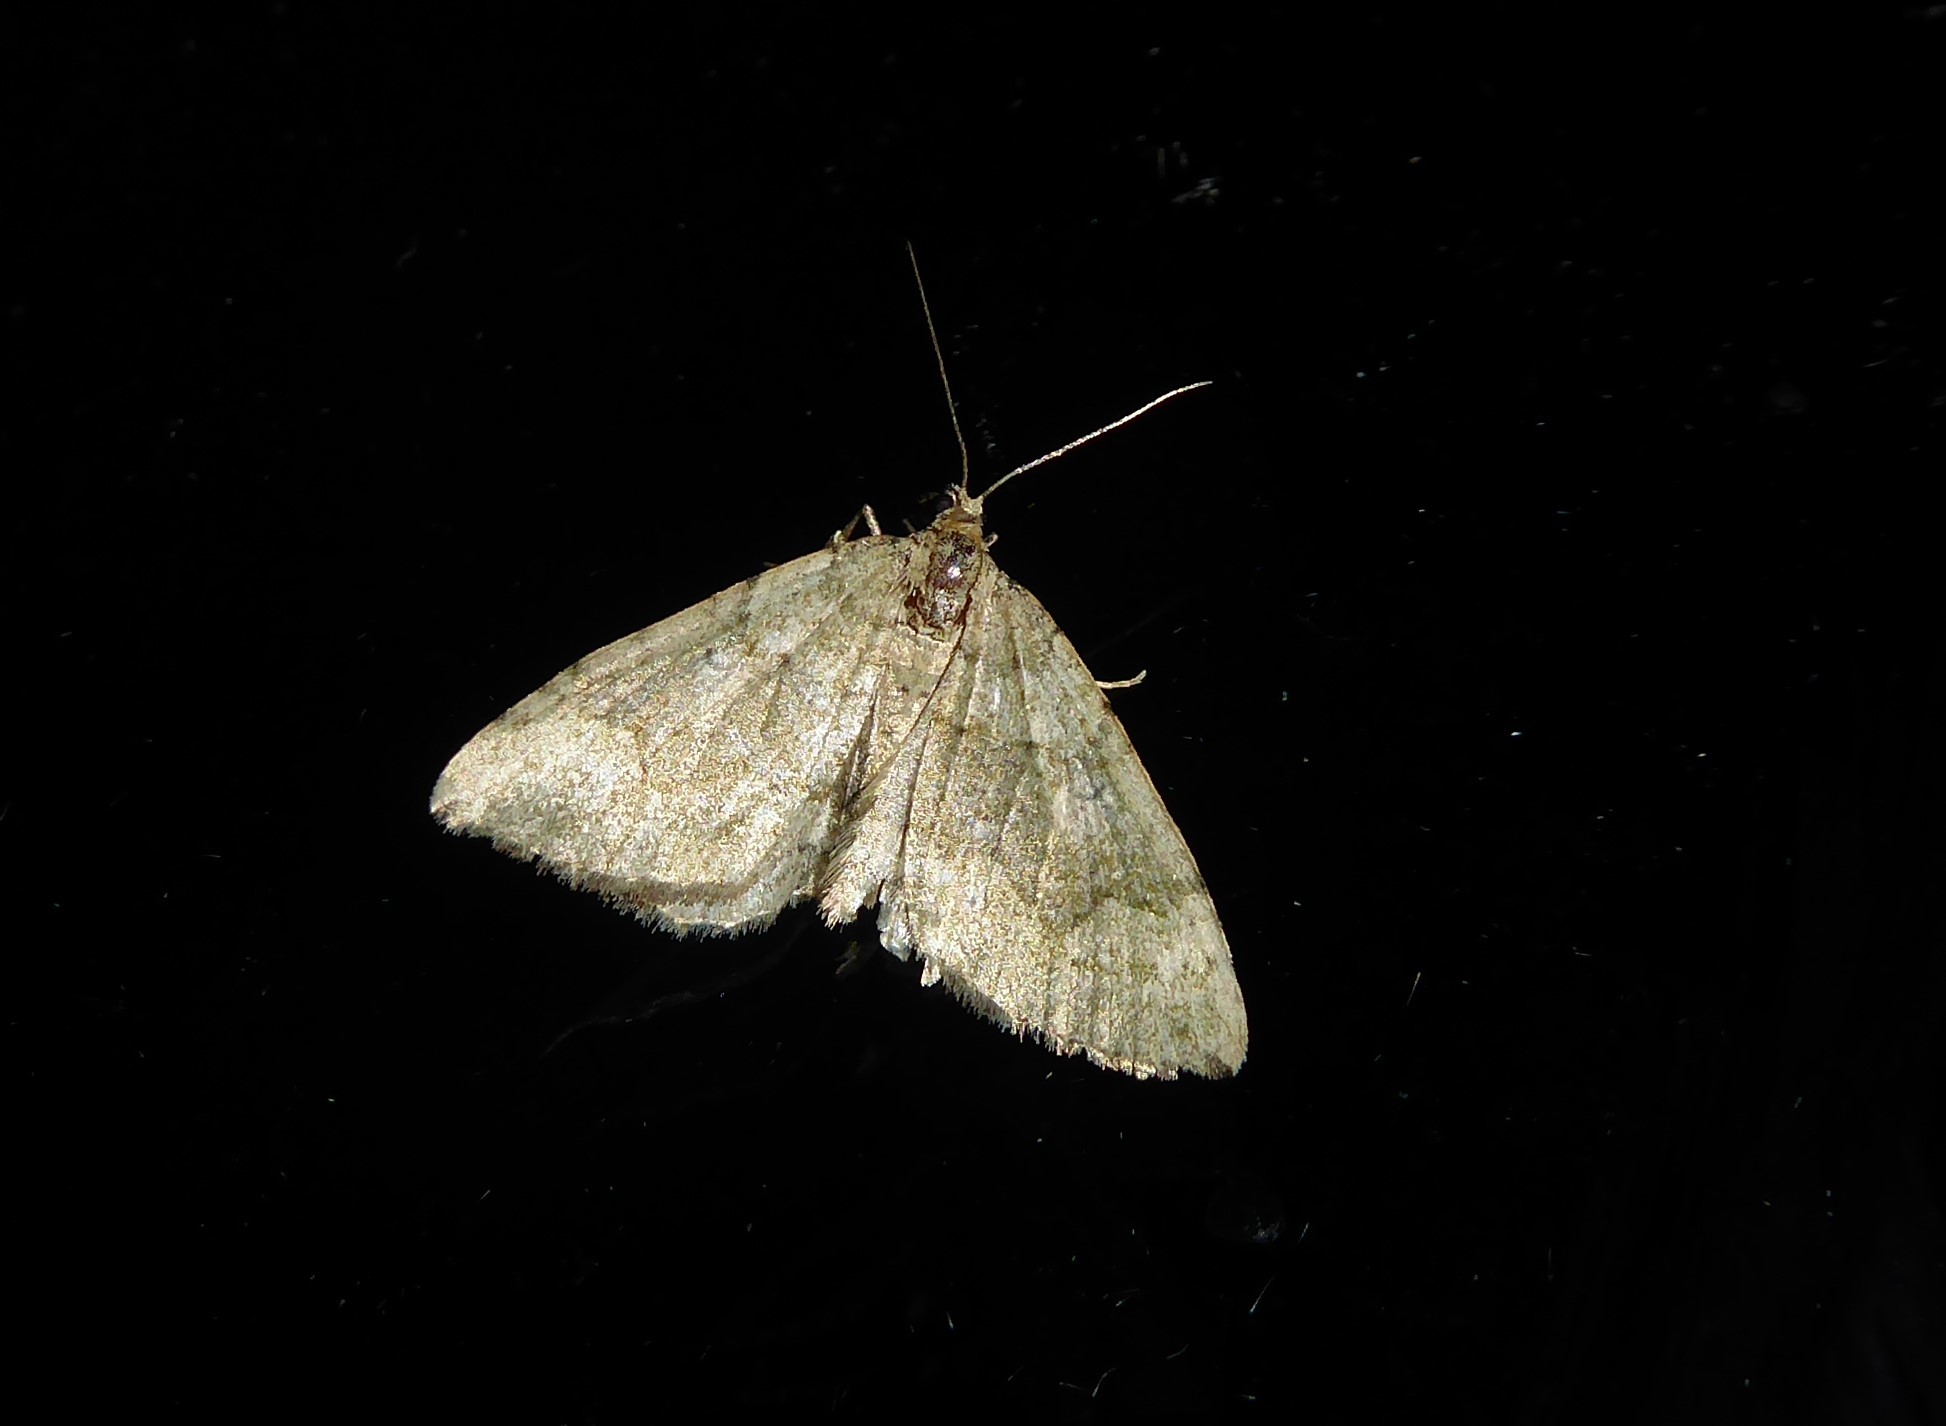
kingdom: Animalia
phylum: Arthropoda
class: Insecta
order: Lepidoptera
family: Geometridae
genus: Epyaxa
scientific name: Epyaxa rosearia
